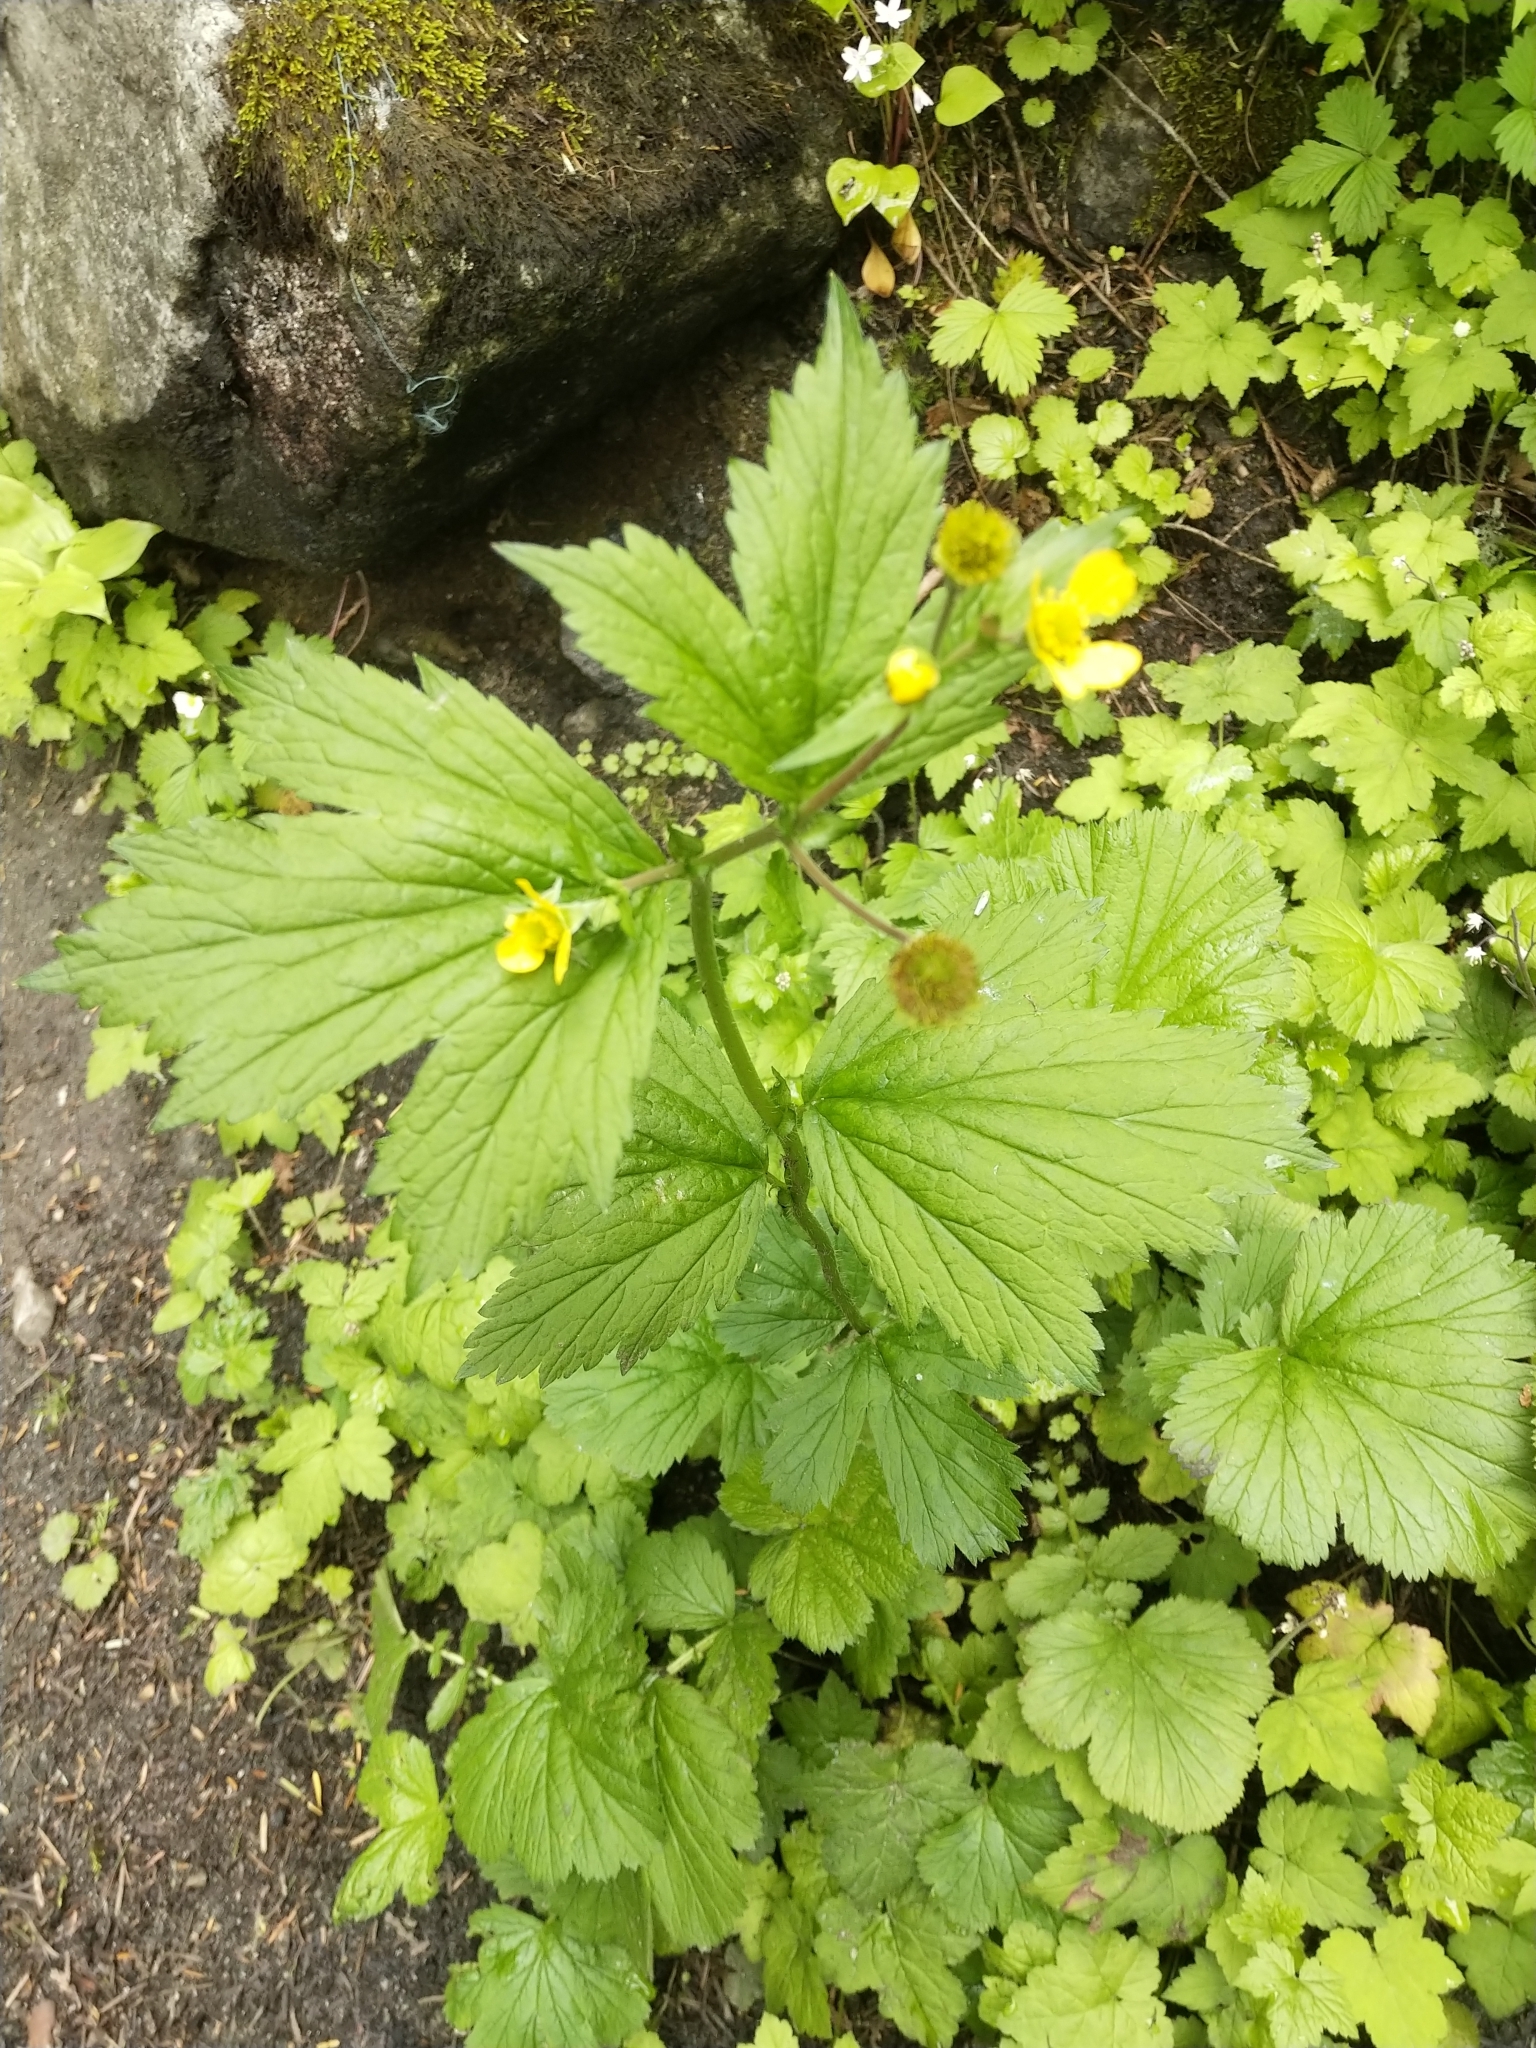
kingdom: Plantae
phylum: Tracheophyta
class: Magnoliopsida
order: Rosales
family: Rosaceae
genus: Geum
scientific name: Geum macrophyllum
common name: Large-leaved avens
